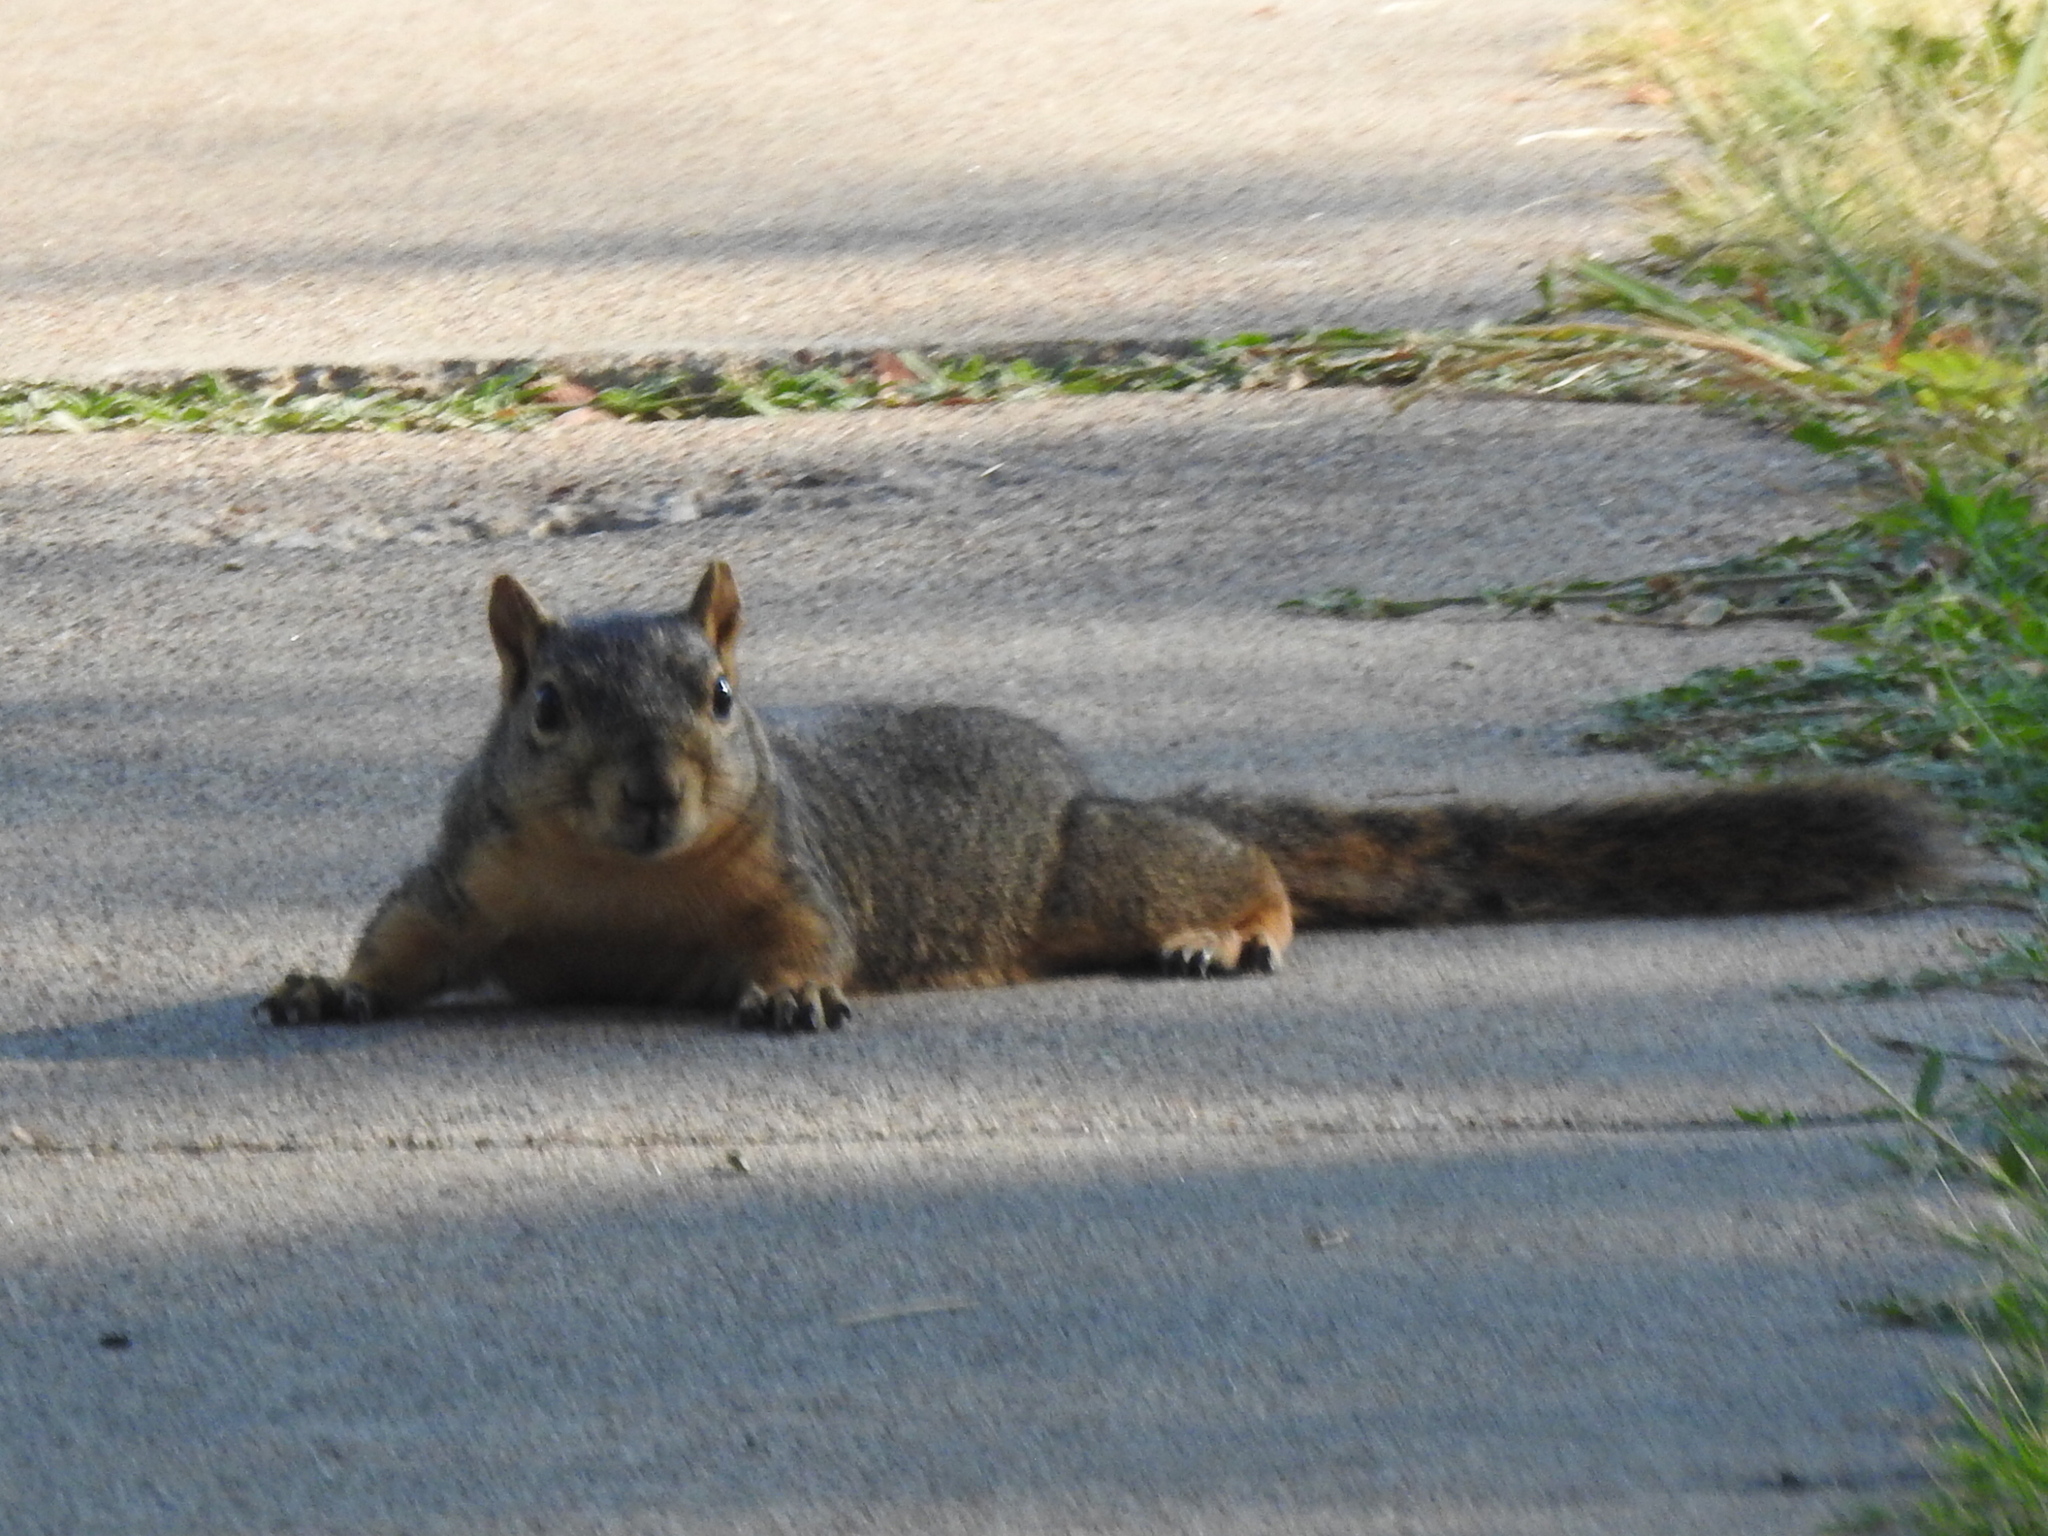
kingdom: Animalia
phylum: Chordata
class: Mammalia
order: Rodentia
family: Sciuridae
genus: Sciurus
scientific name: Sciurus niger
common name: Fox squirrel
